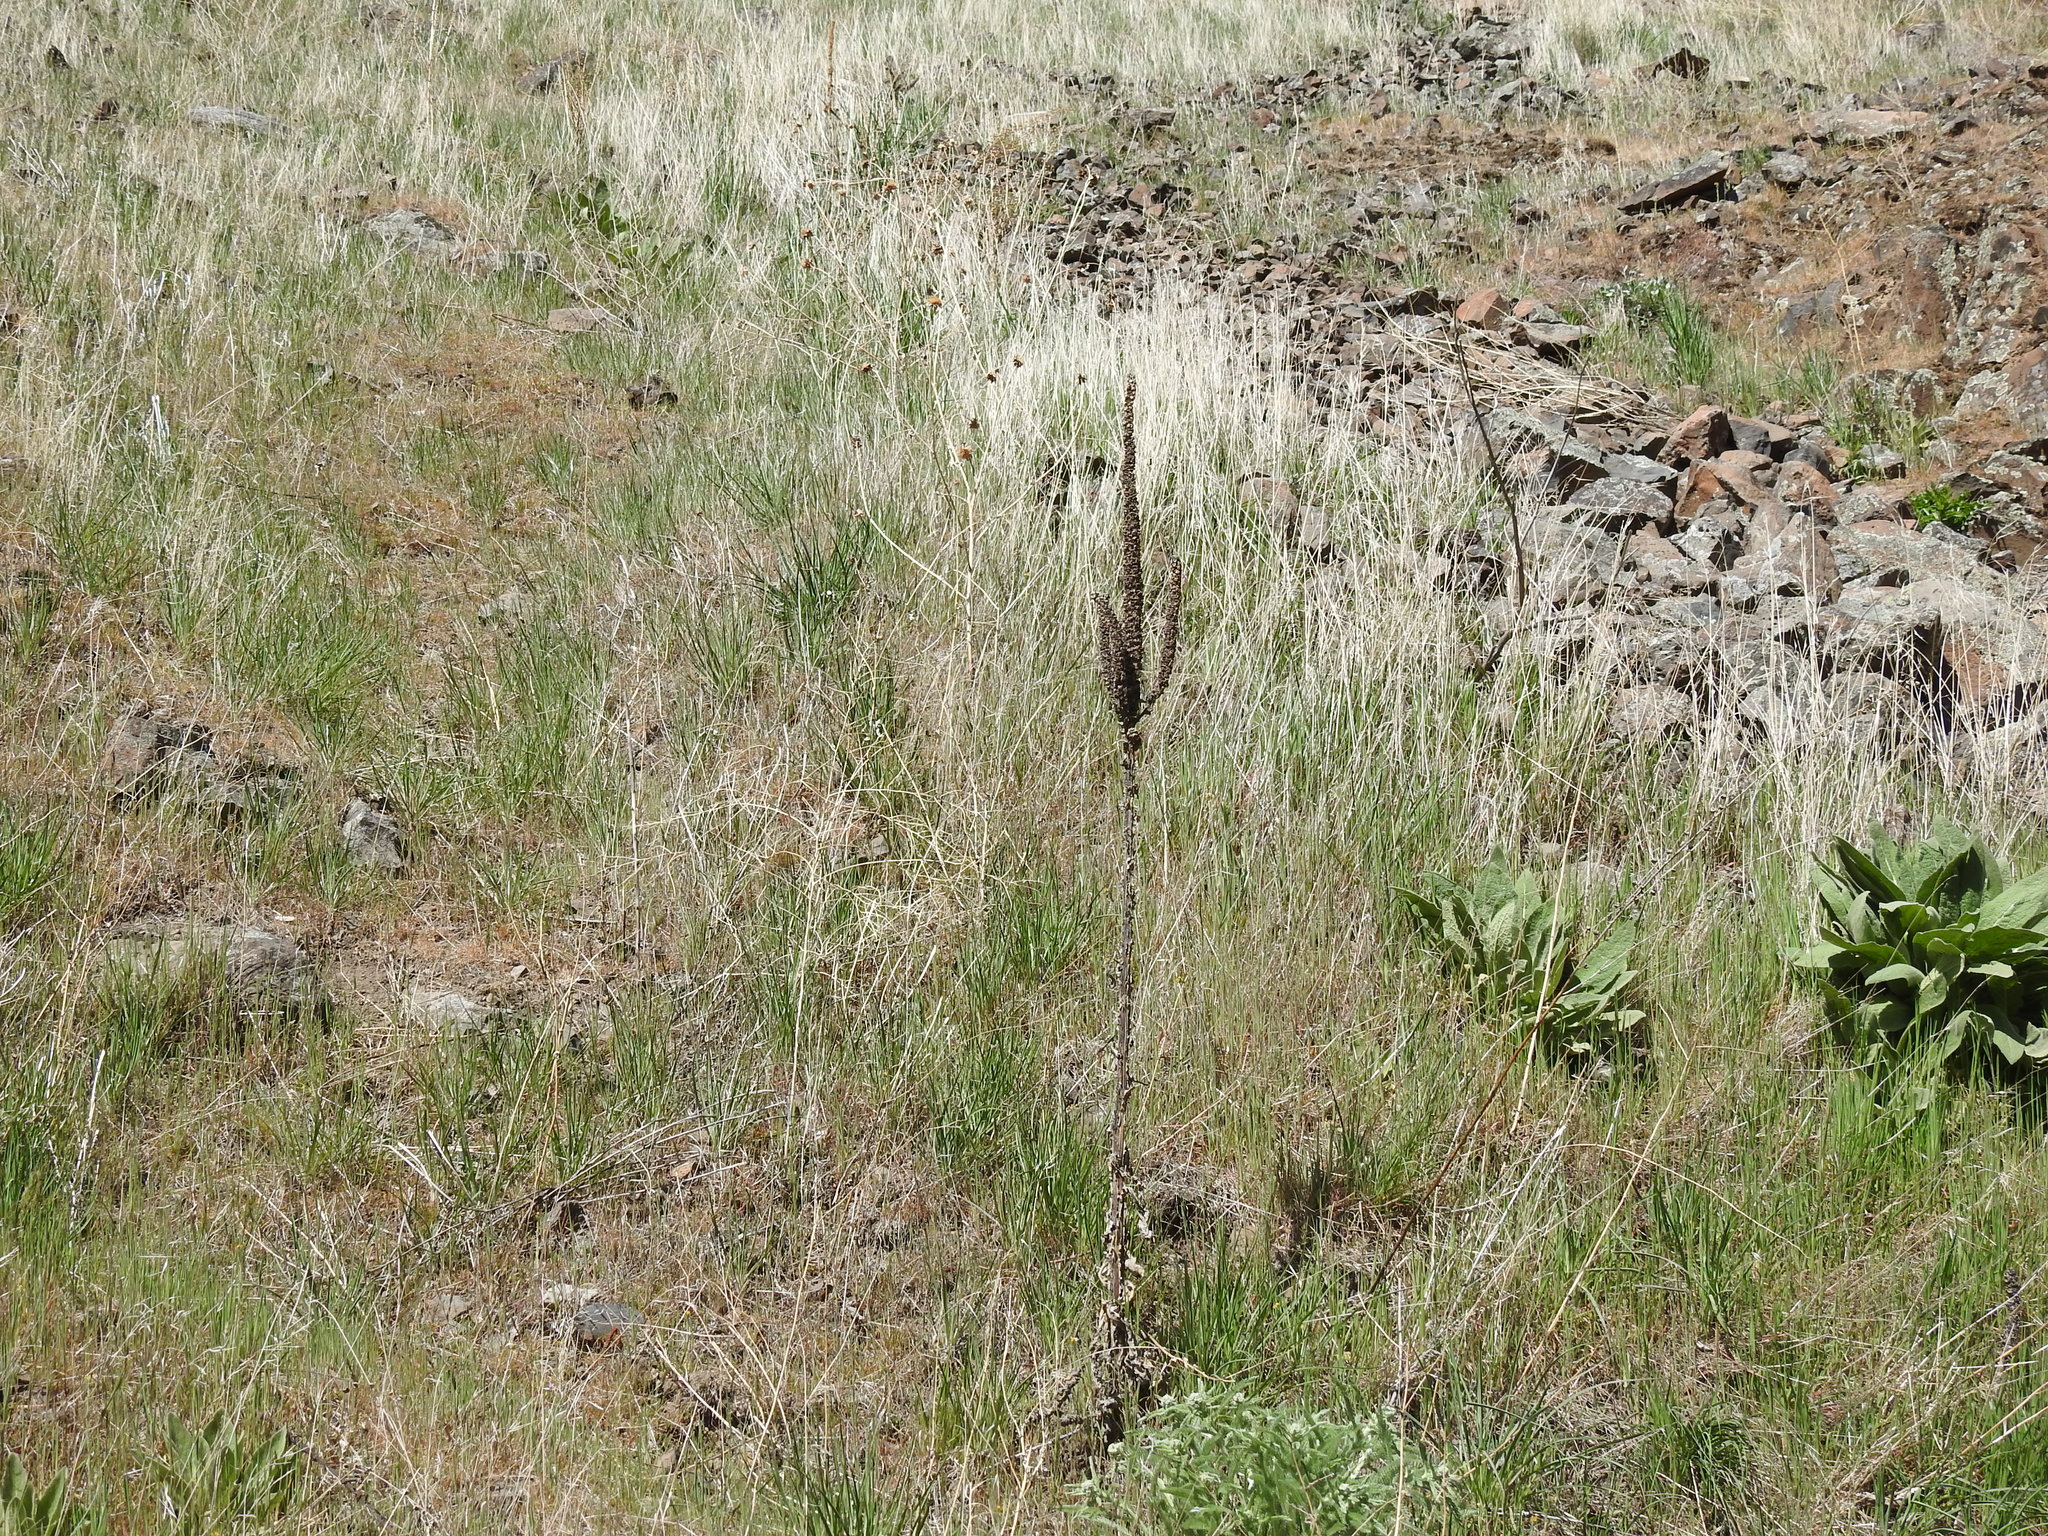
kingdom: Plantae
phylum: Tracheophyta
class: Magnoliopsida
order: Lamiales
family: Scrophulariaceae
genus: Verbascum
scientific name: Verbascum thapsus
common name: Common mullein
